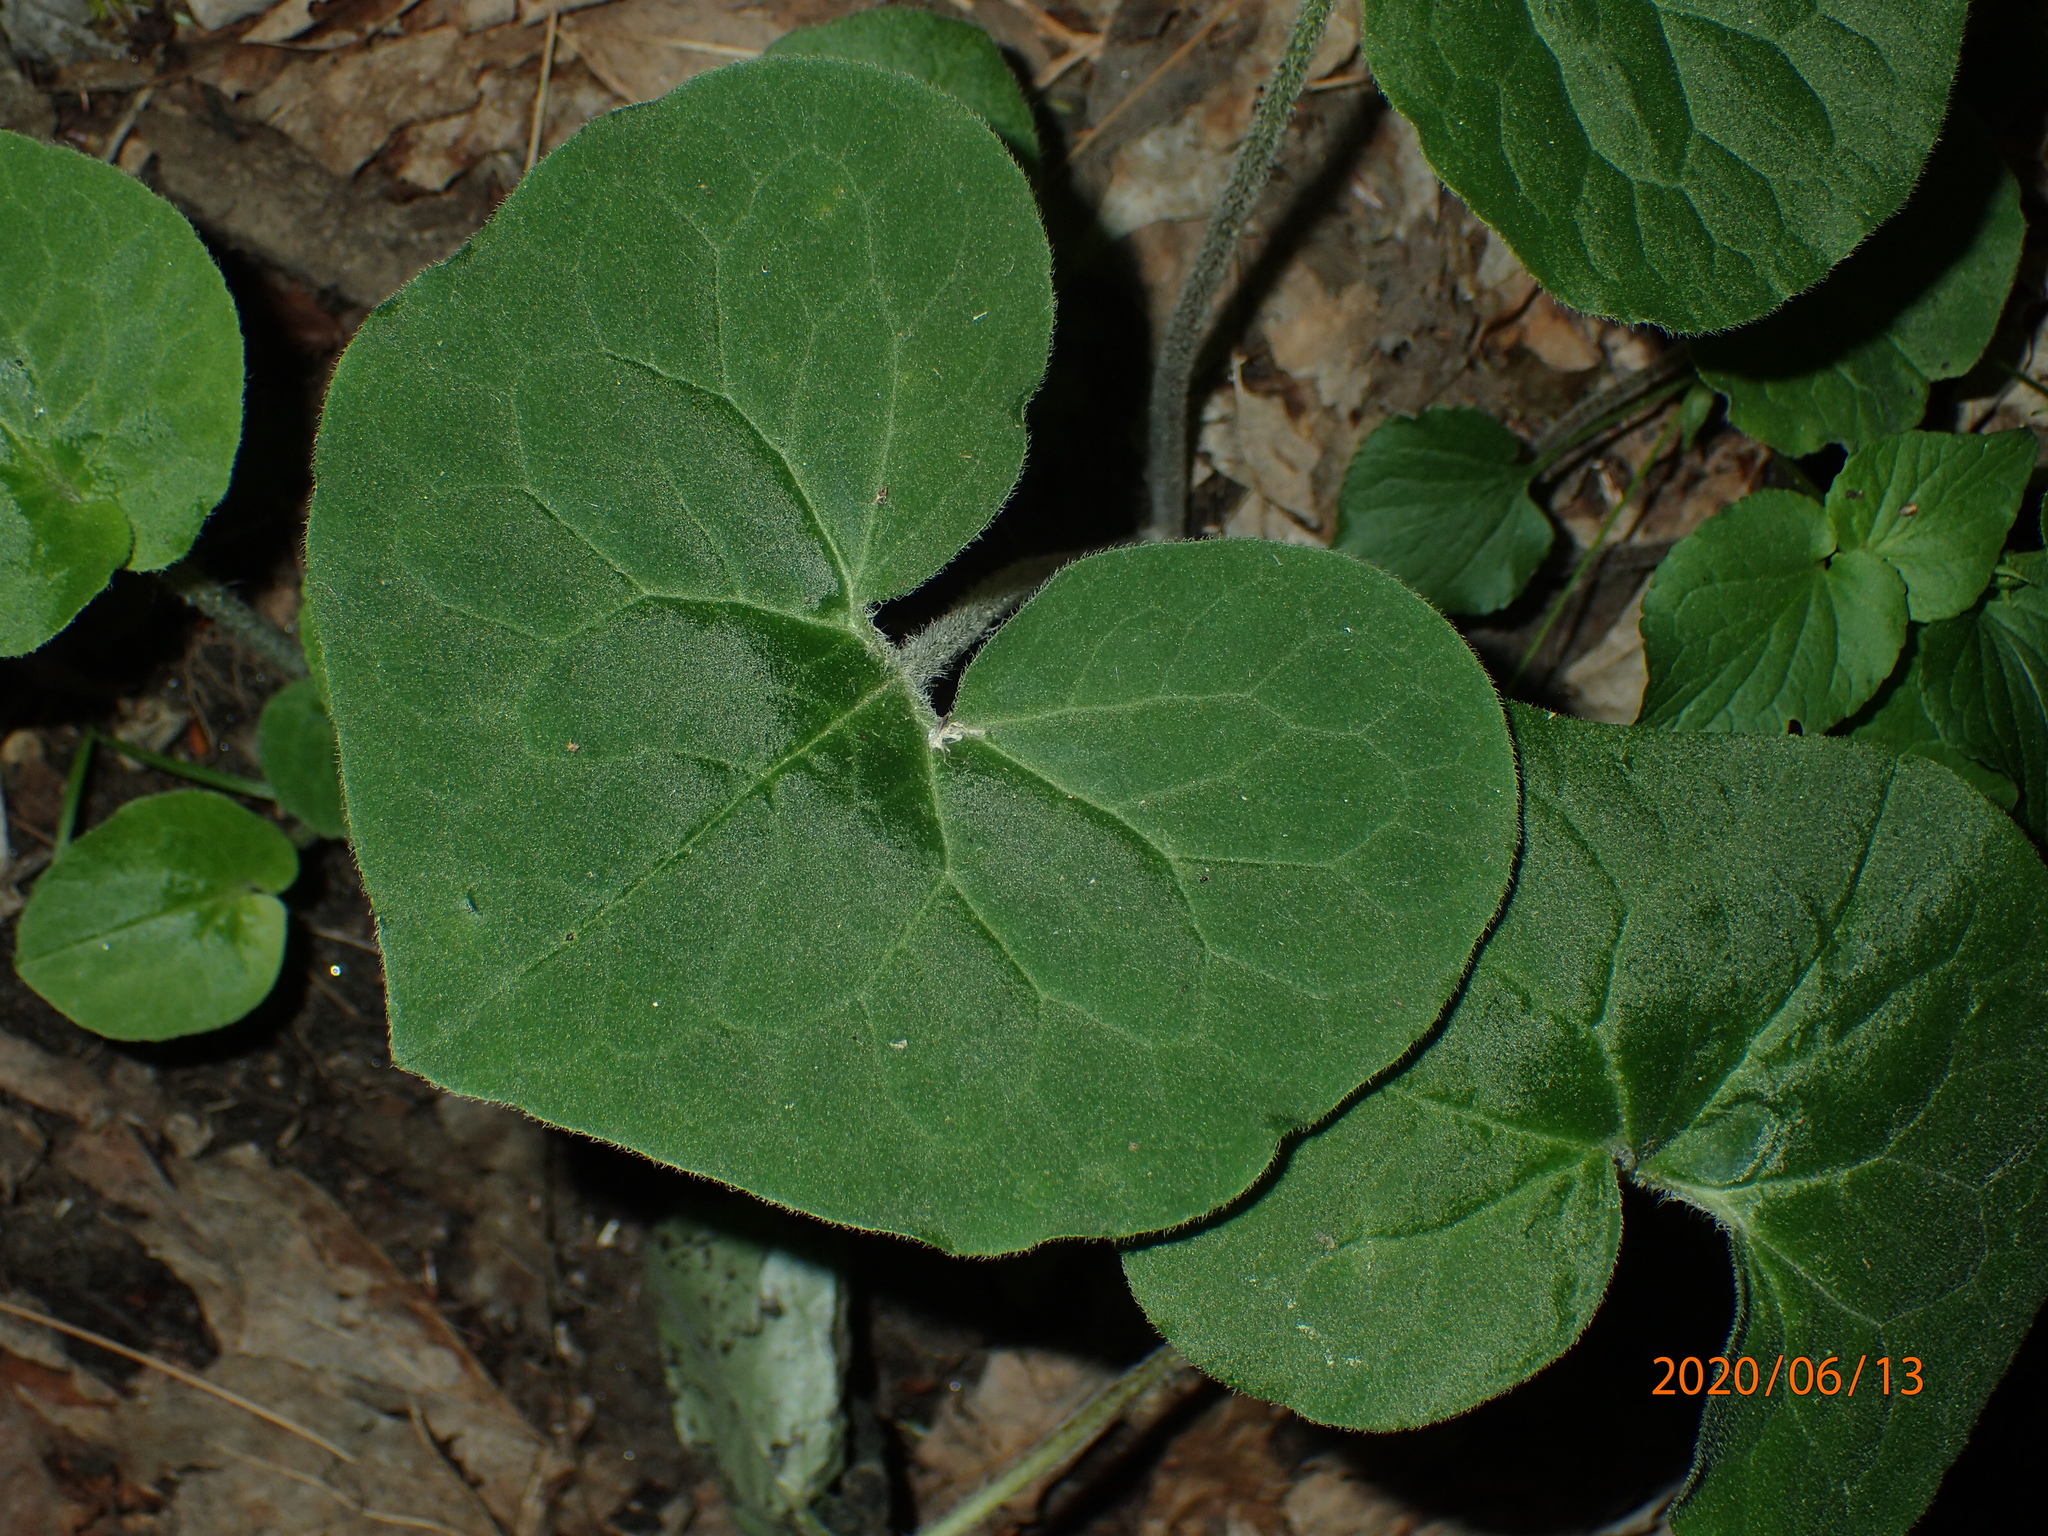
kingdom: Plantae
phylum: Tracheophyta
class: Magnoliopsida
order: Piperales
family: Aristolochiaceae
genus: Asarum
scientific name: Asarum canadense
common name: Wild ginger
